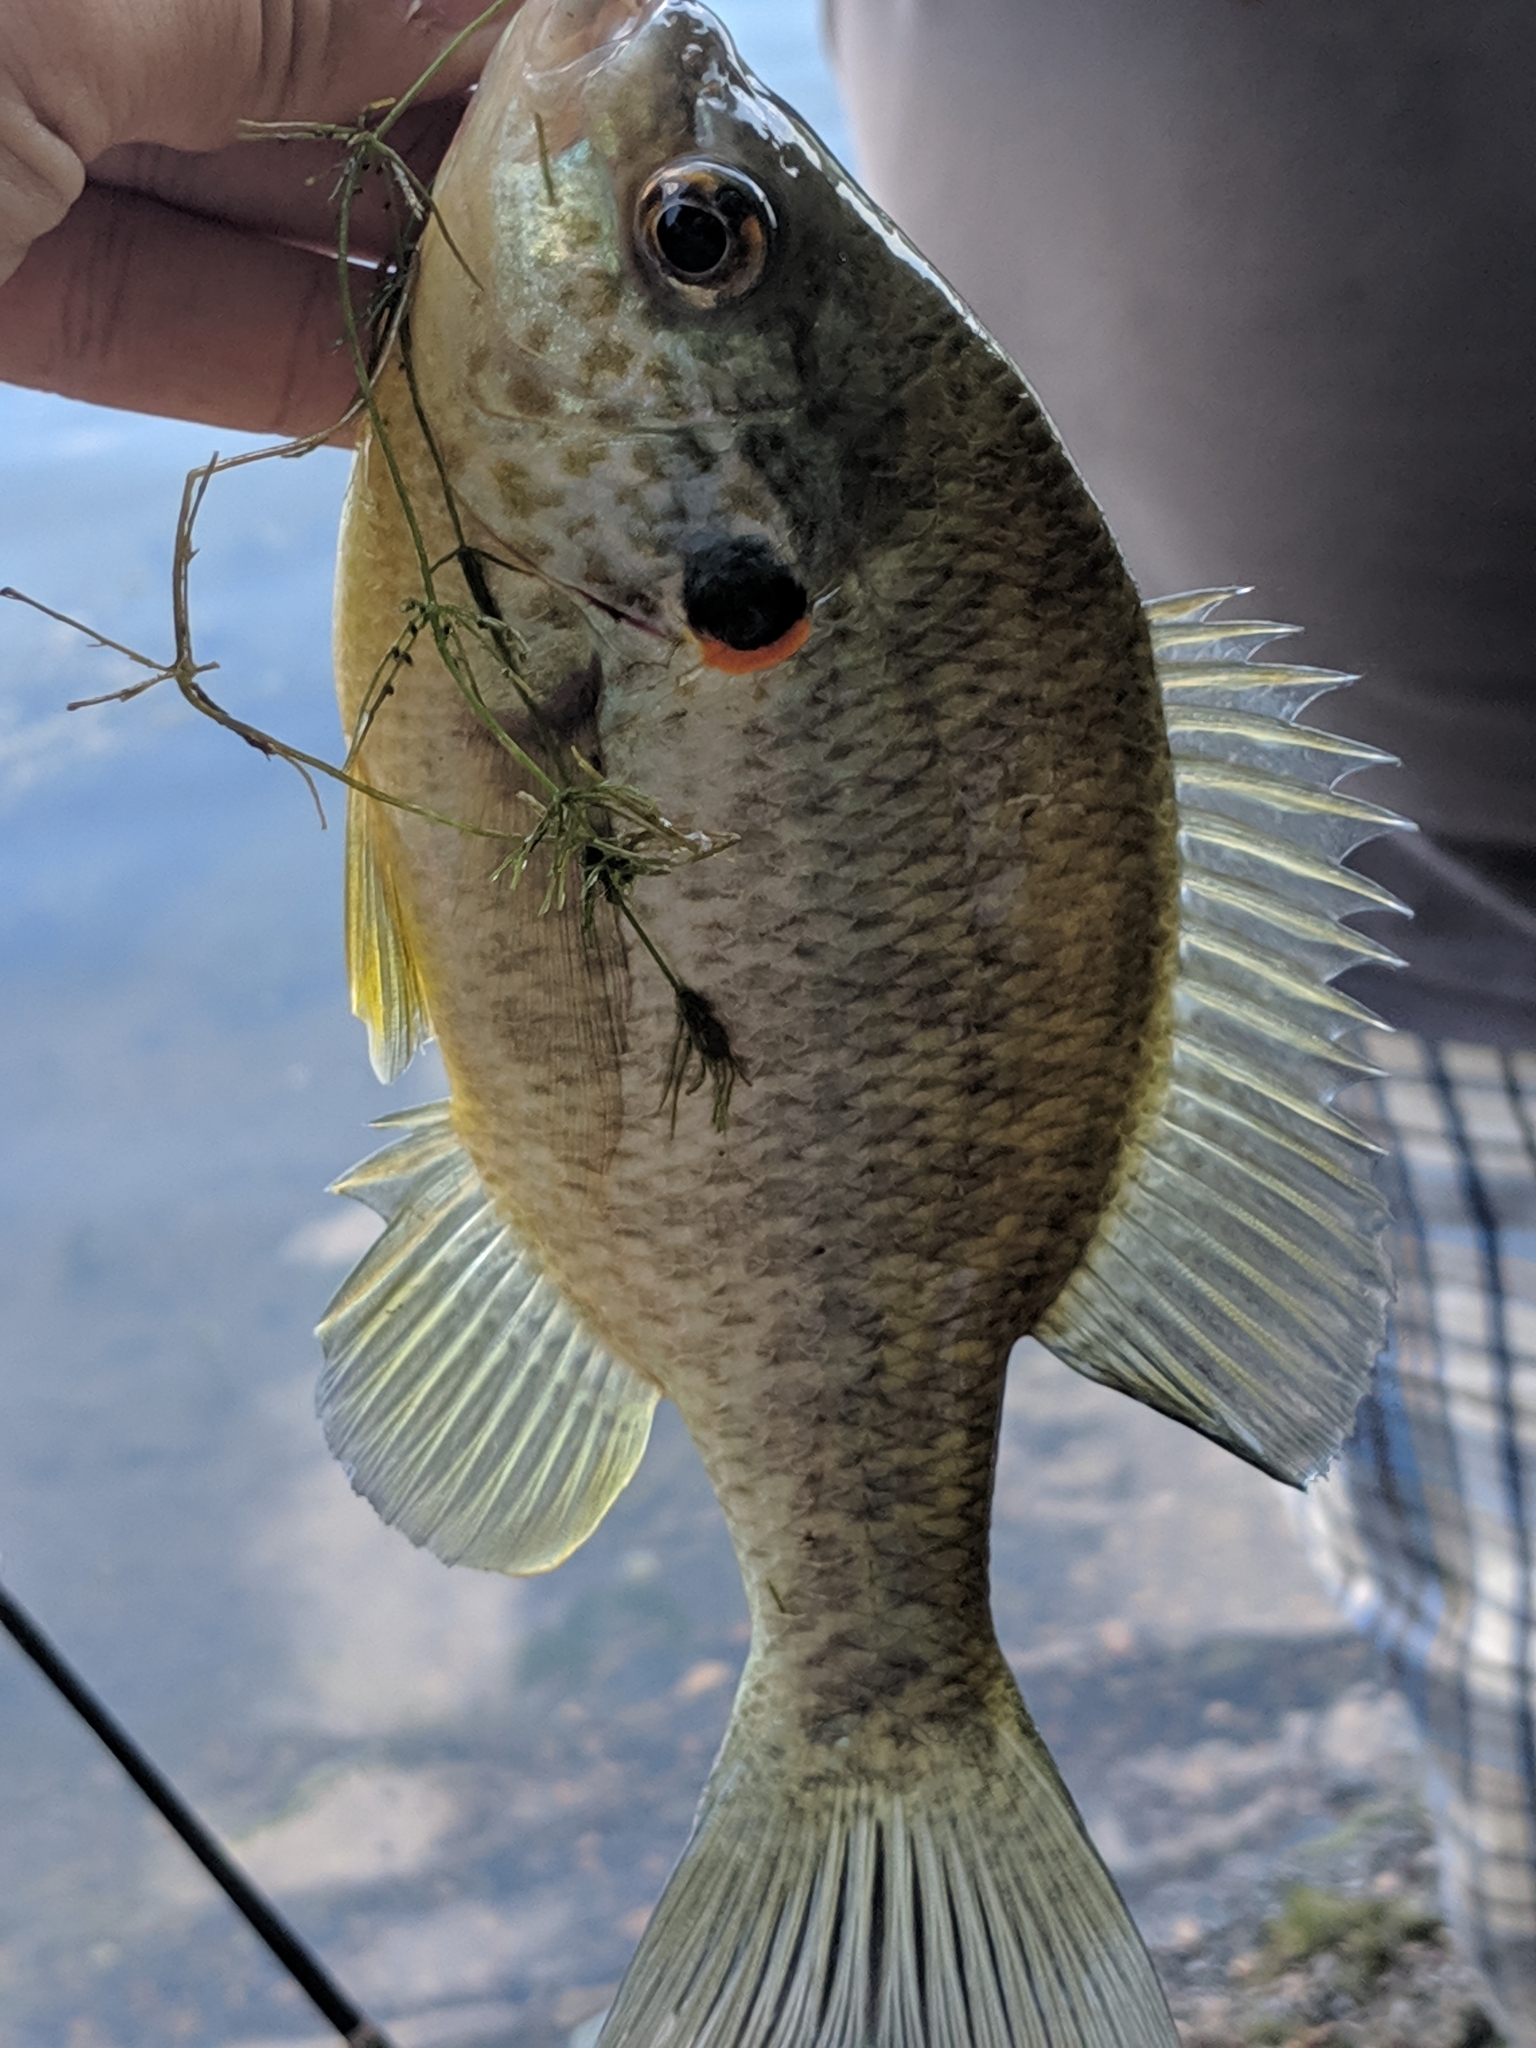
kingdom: Animalia
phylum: Chordata
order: Perciformes
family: Centrarchidae
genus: Lepomis
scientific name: Lepomis microlophus
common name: Redear sunfish
